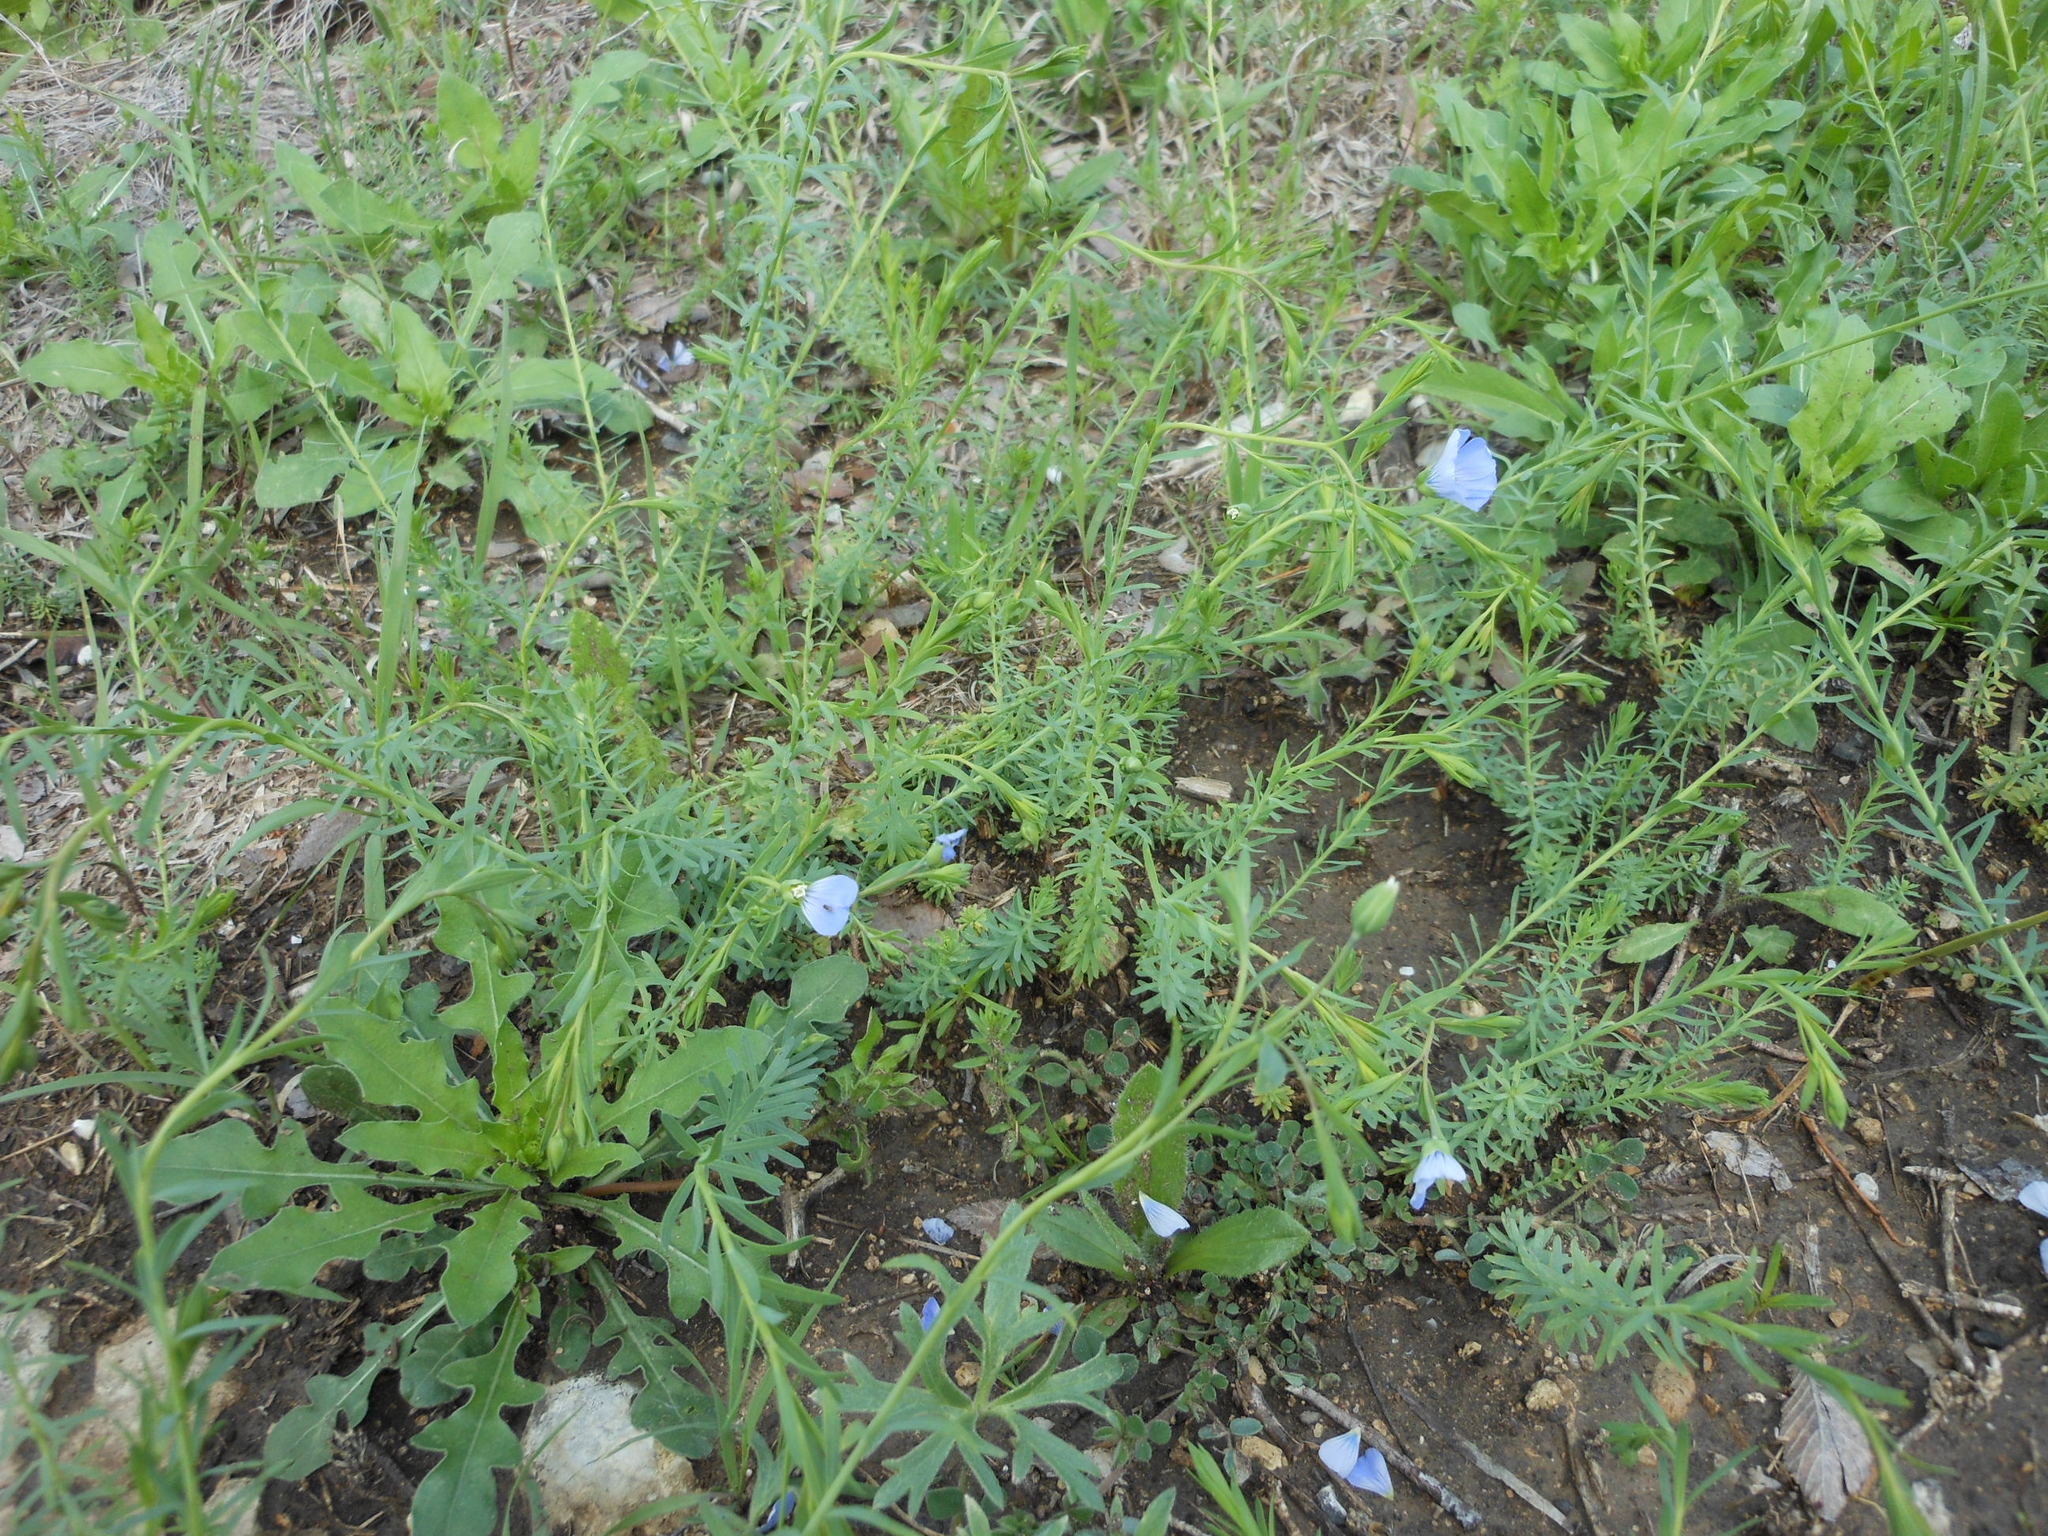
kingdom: Plantae
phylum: Tracheophyta
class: Magnoliopsida
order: Malpighiales
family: Linaceae
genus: Linum
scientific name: Linum pratense
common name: Norton's flax
